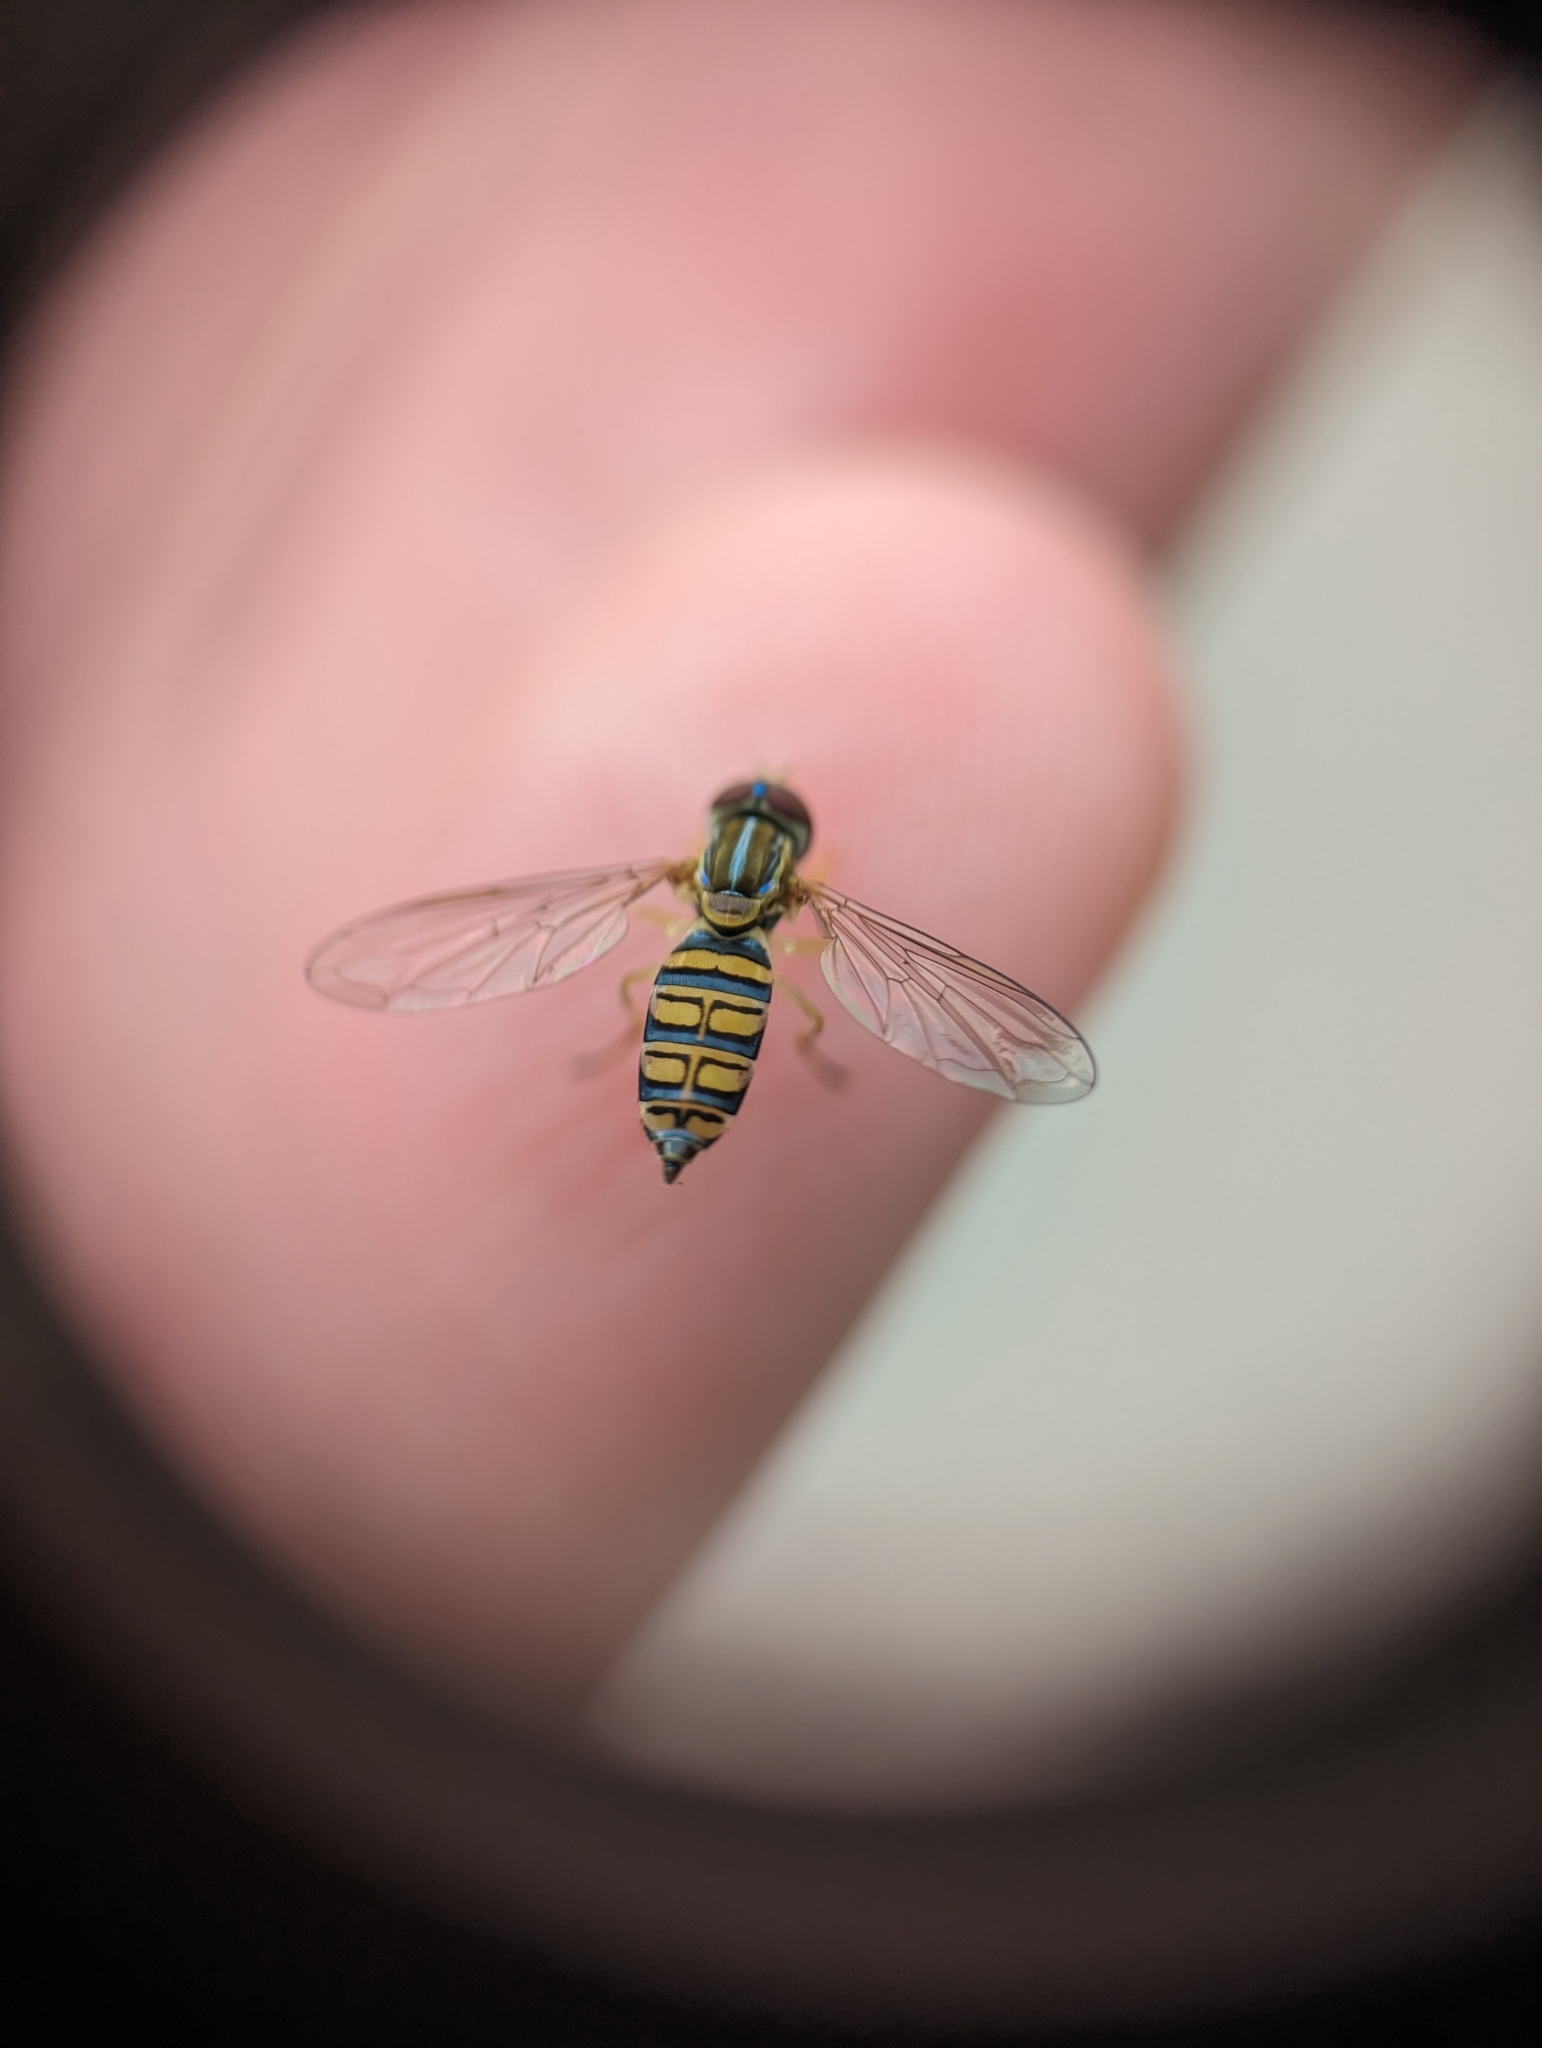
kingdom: Animalia
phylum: Arthropoda
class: Insecta
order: Diptera
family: Syrphidae
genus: Toxomerus
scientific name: Toxomerus politus
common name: Maize calligrapher
